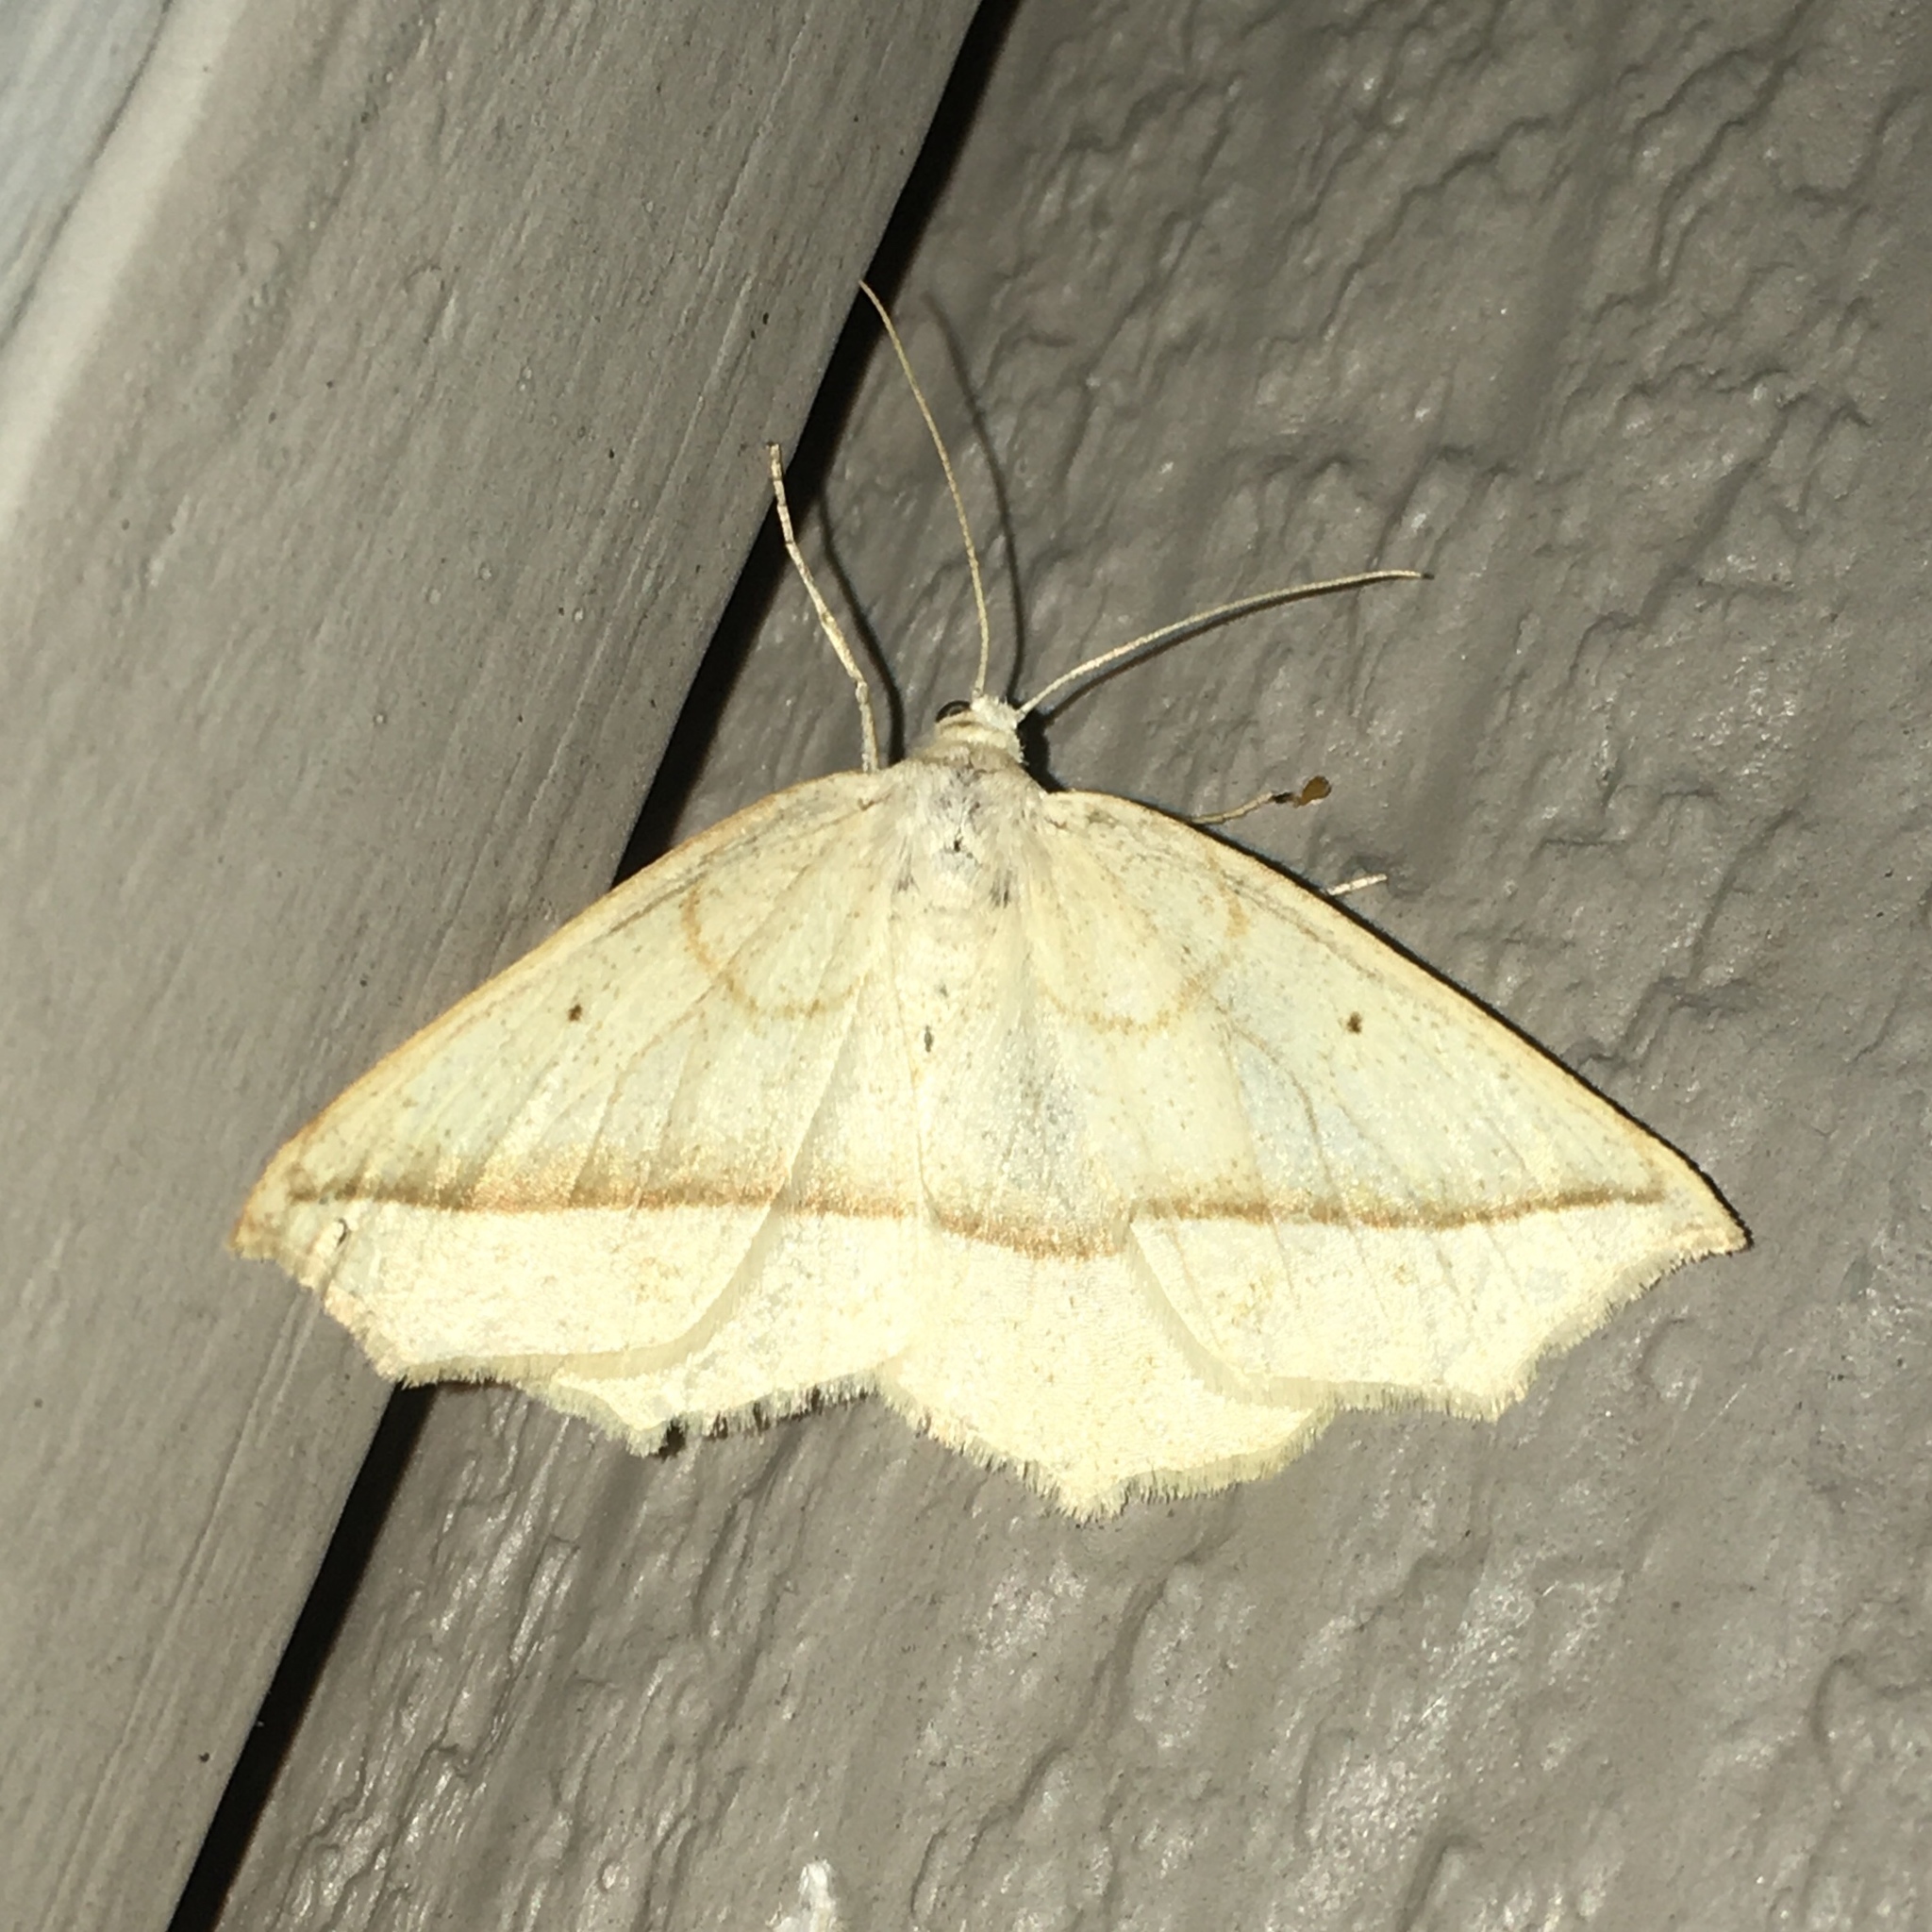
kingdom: Animalia
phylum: Arthropoda
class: Insecta
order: Lepidoptera
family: Geometridae
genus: Eusarca
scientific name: Eusarca confusaria
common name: Confused eusarca
